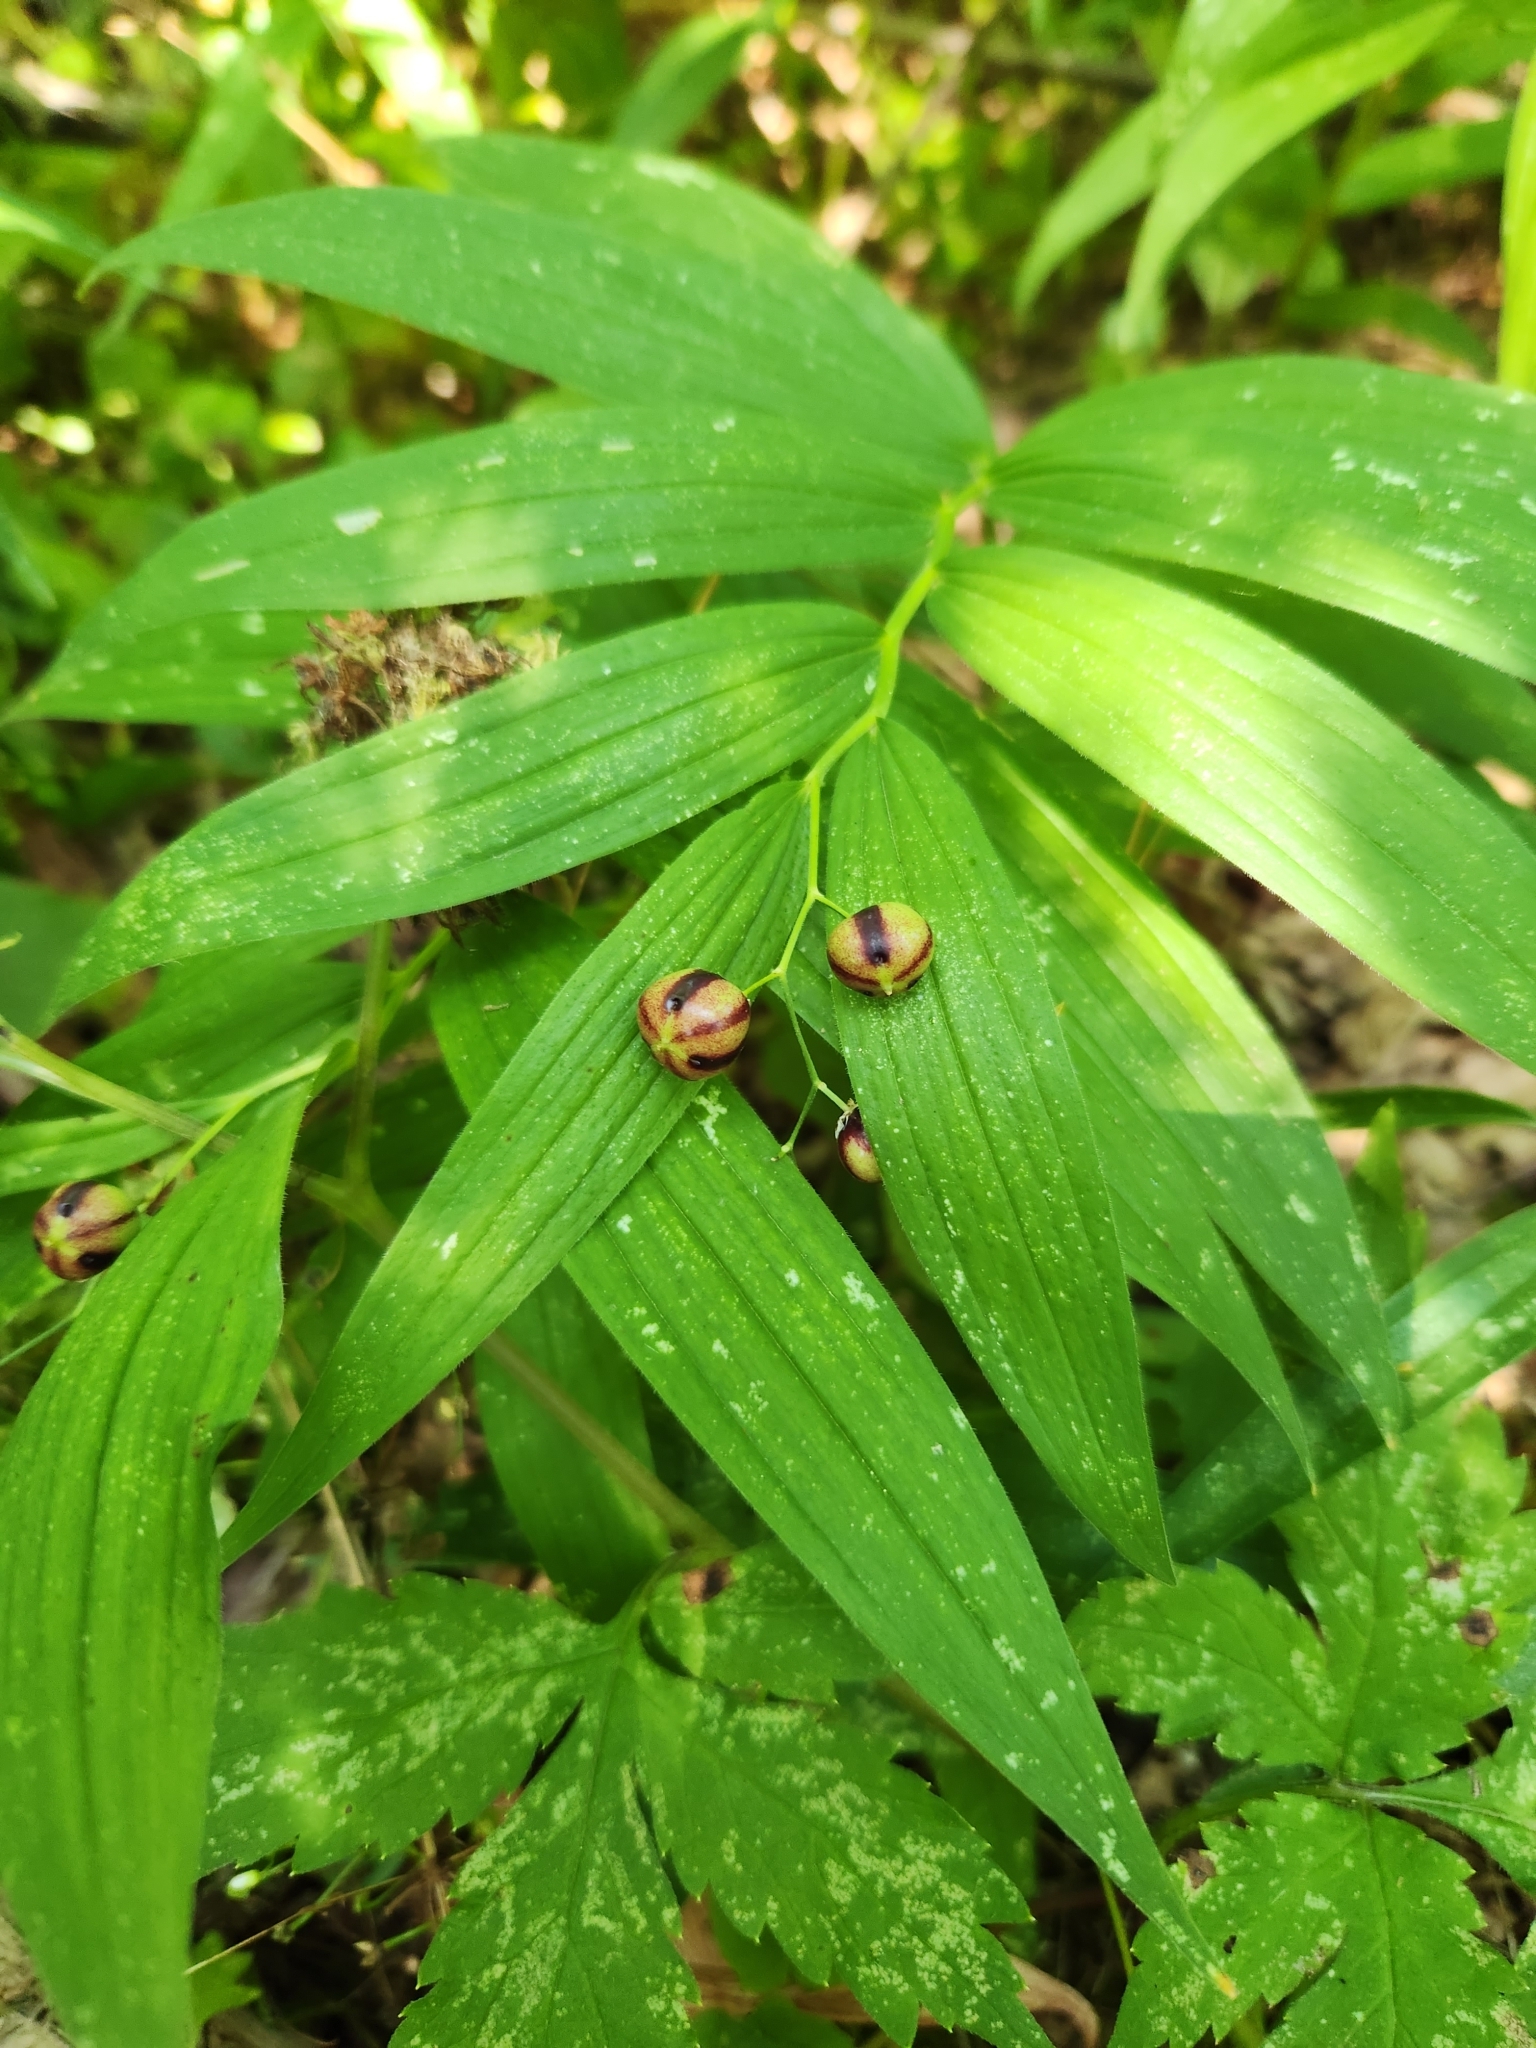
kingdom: Plantae
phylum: Tracheophyta
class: Liliopsida
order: Asparagales
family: Asparagaceae
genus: Maianthemum
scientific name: Maianthemum stellatum
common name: Little false solomon's seal
